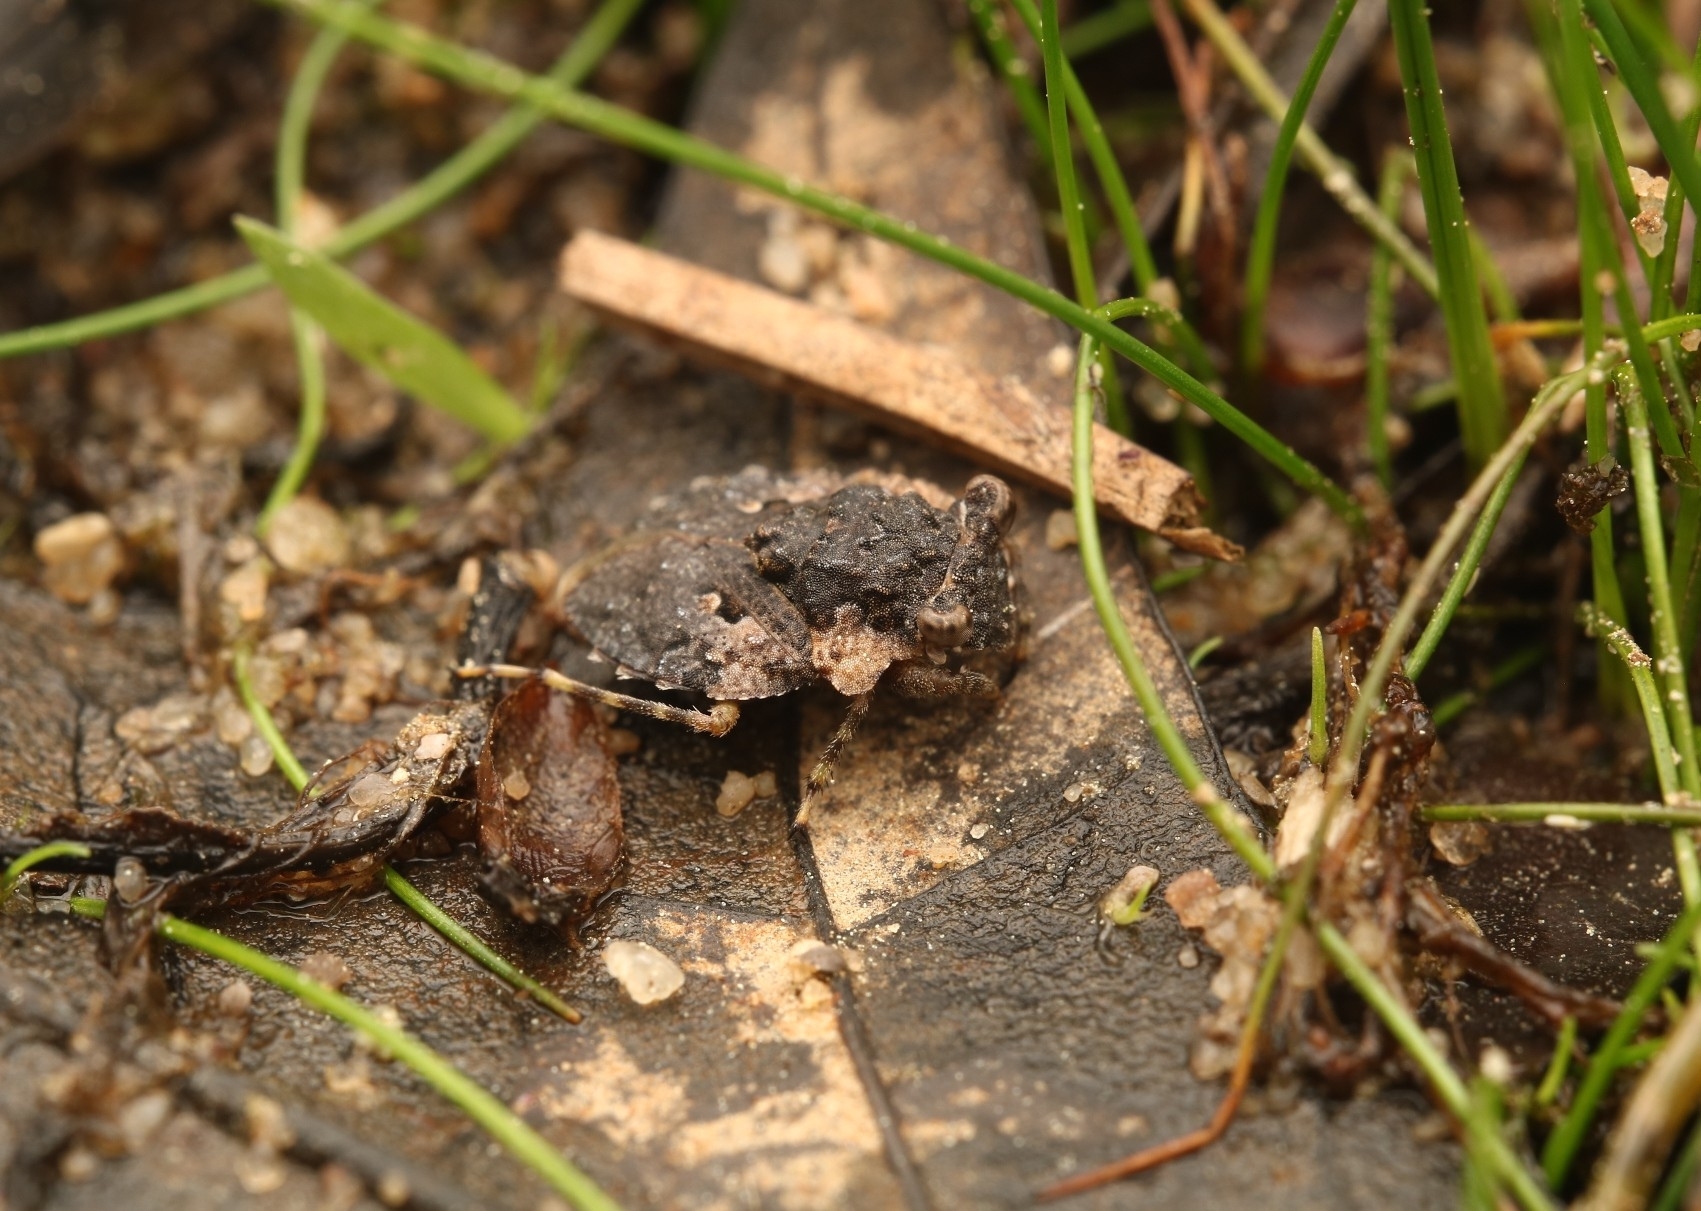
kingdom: Animalia
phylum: Arthropoda
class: Insecta
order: Hemiptera
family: Gelastocoridae
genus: Gelastocoris
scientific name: Gelastocoris oculatus
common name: Toad bug
